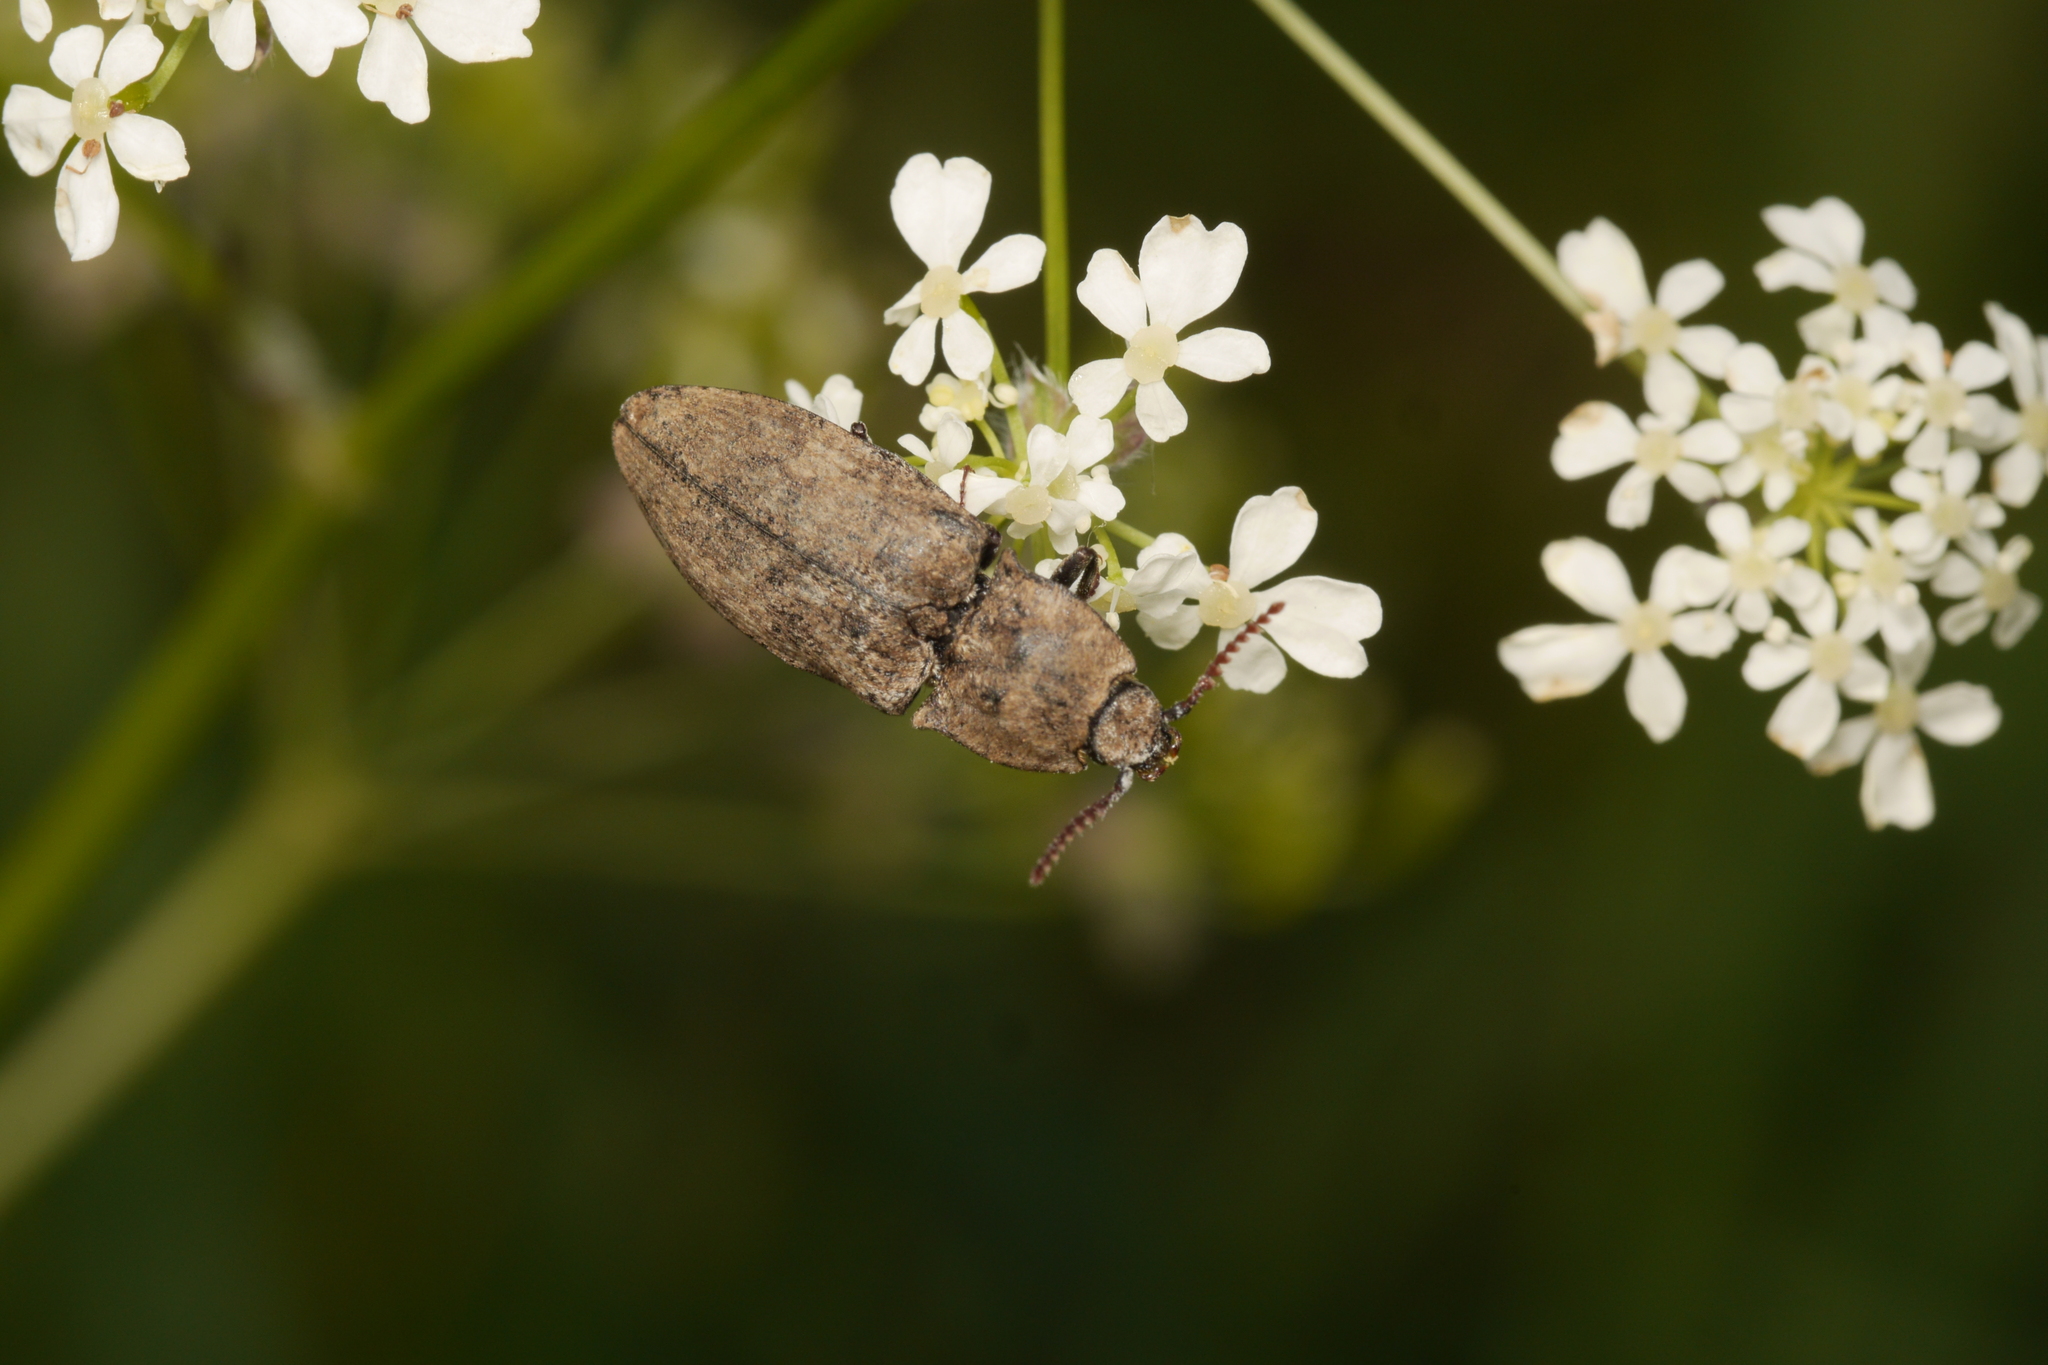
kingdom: Animalia
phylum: Arthropoda
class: Insecta
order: Coleoptera
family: Elateridae
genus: Agrypnus
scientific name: Agrypnus murinus
